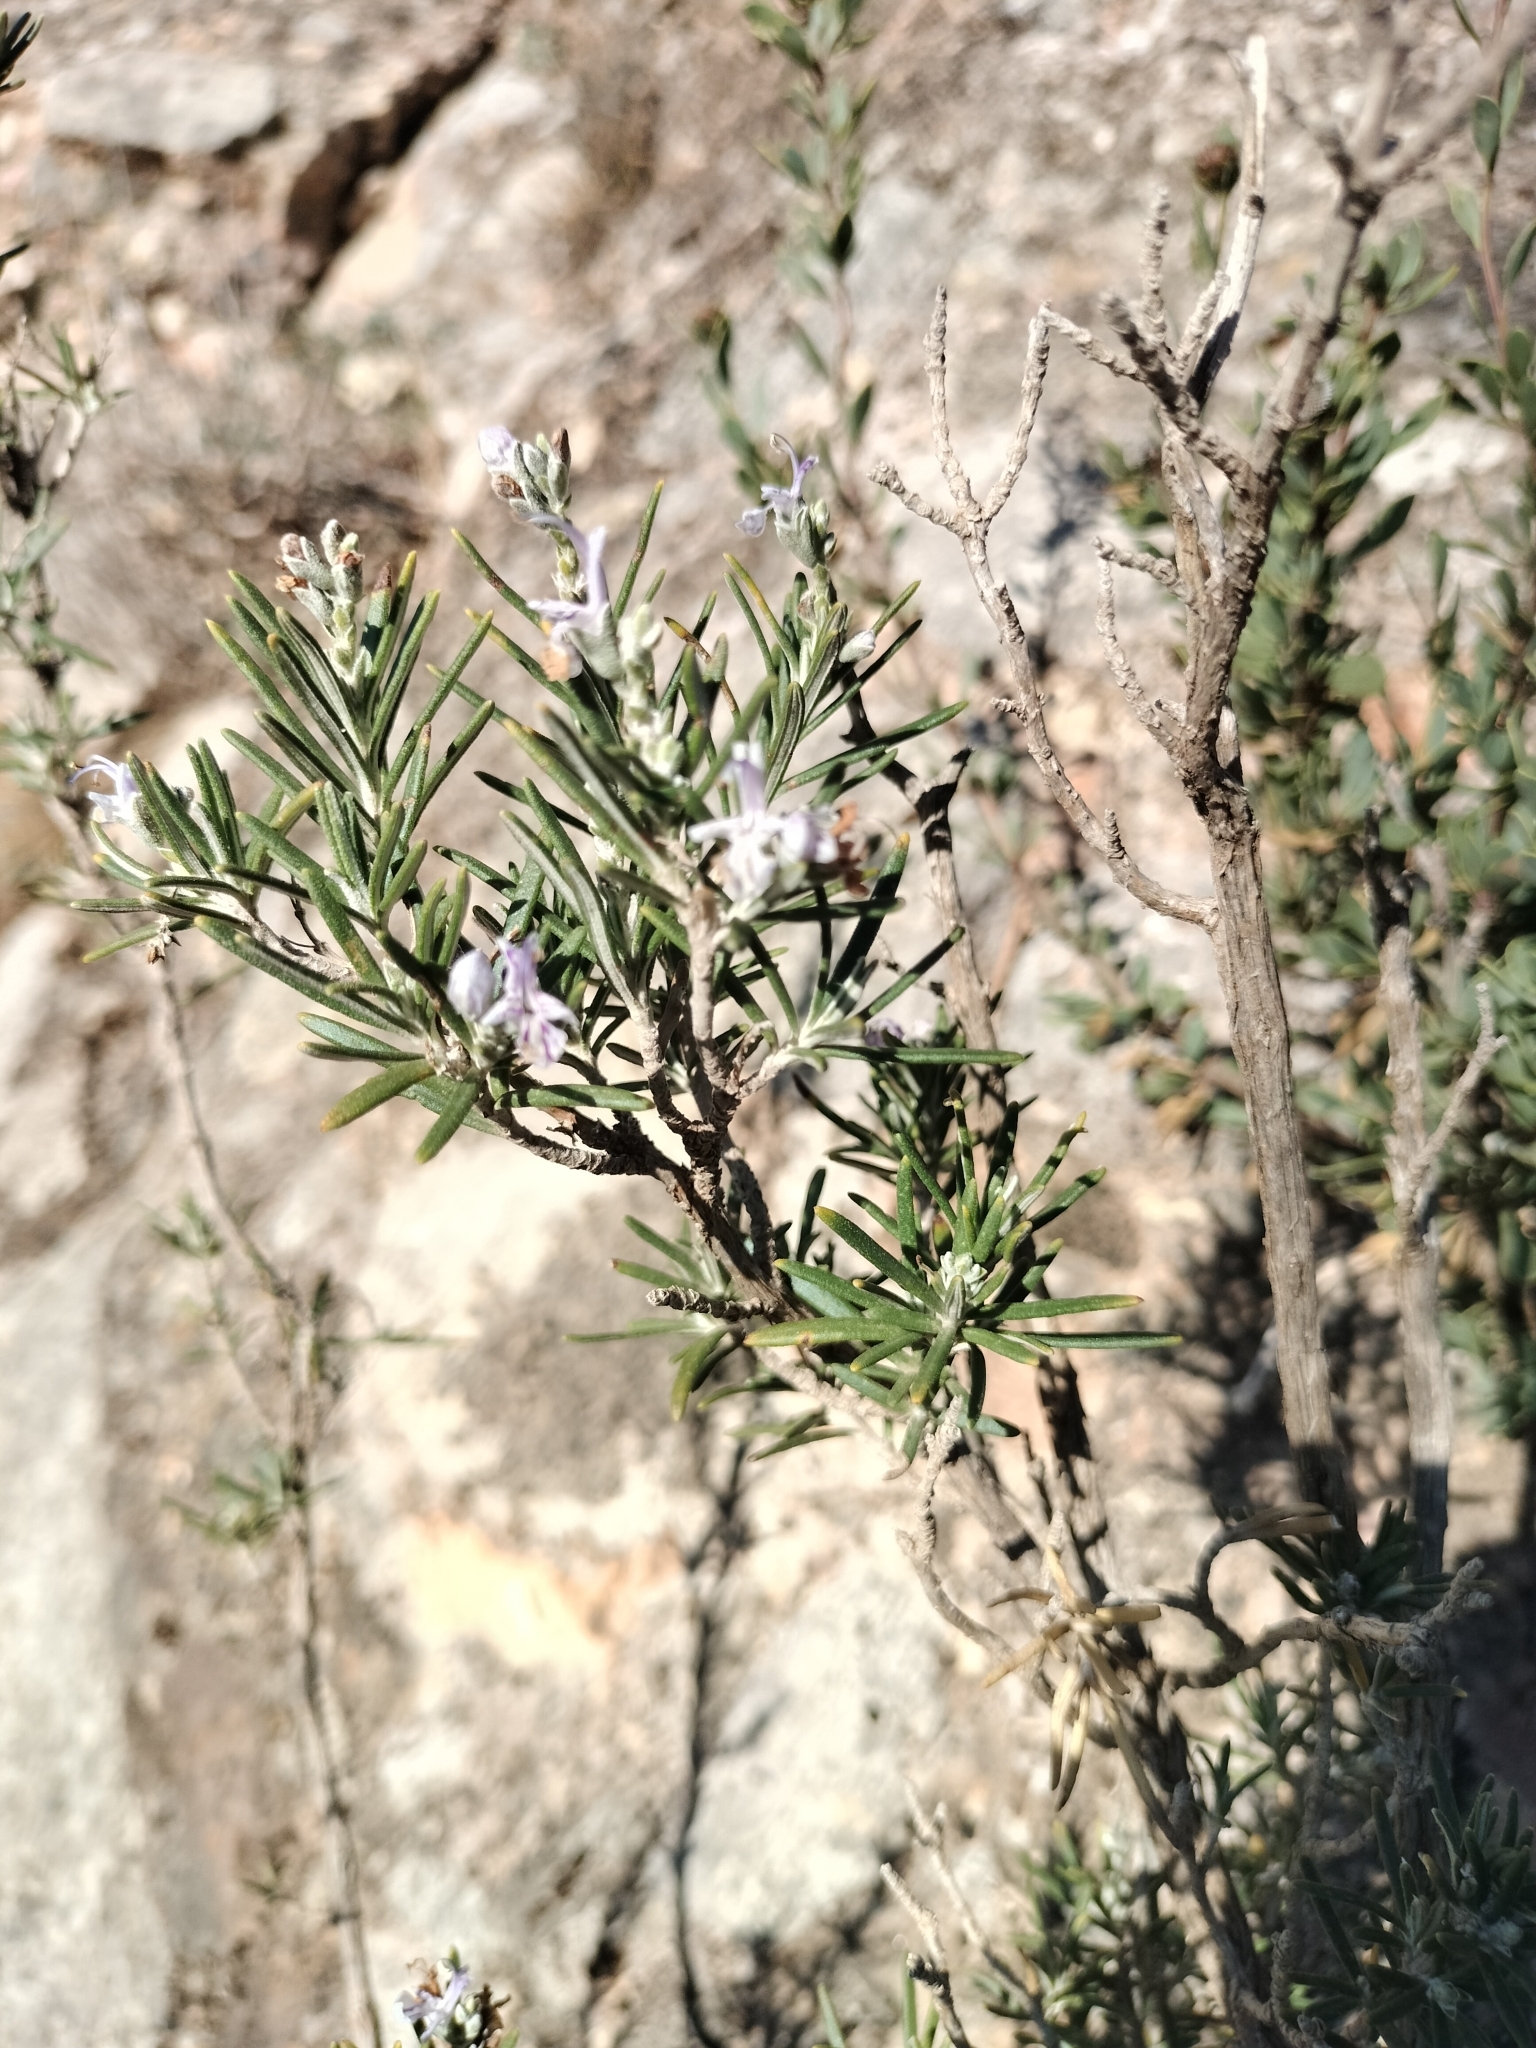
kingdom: Plantae
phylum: Tracheophyta
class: Magnoliopsida
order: Lamiales
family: Lamiaceae
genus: Salvia
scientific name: Salvia rosmarinus
